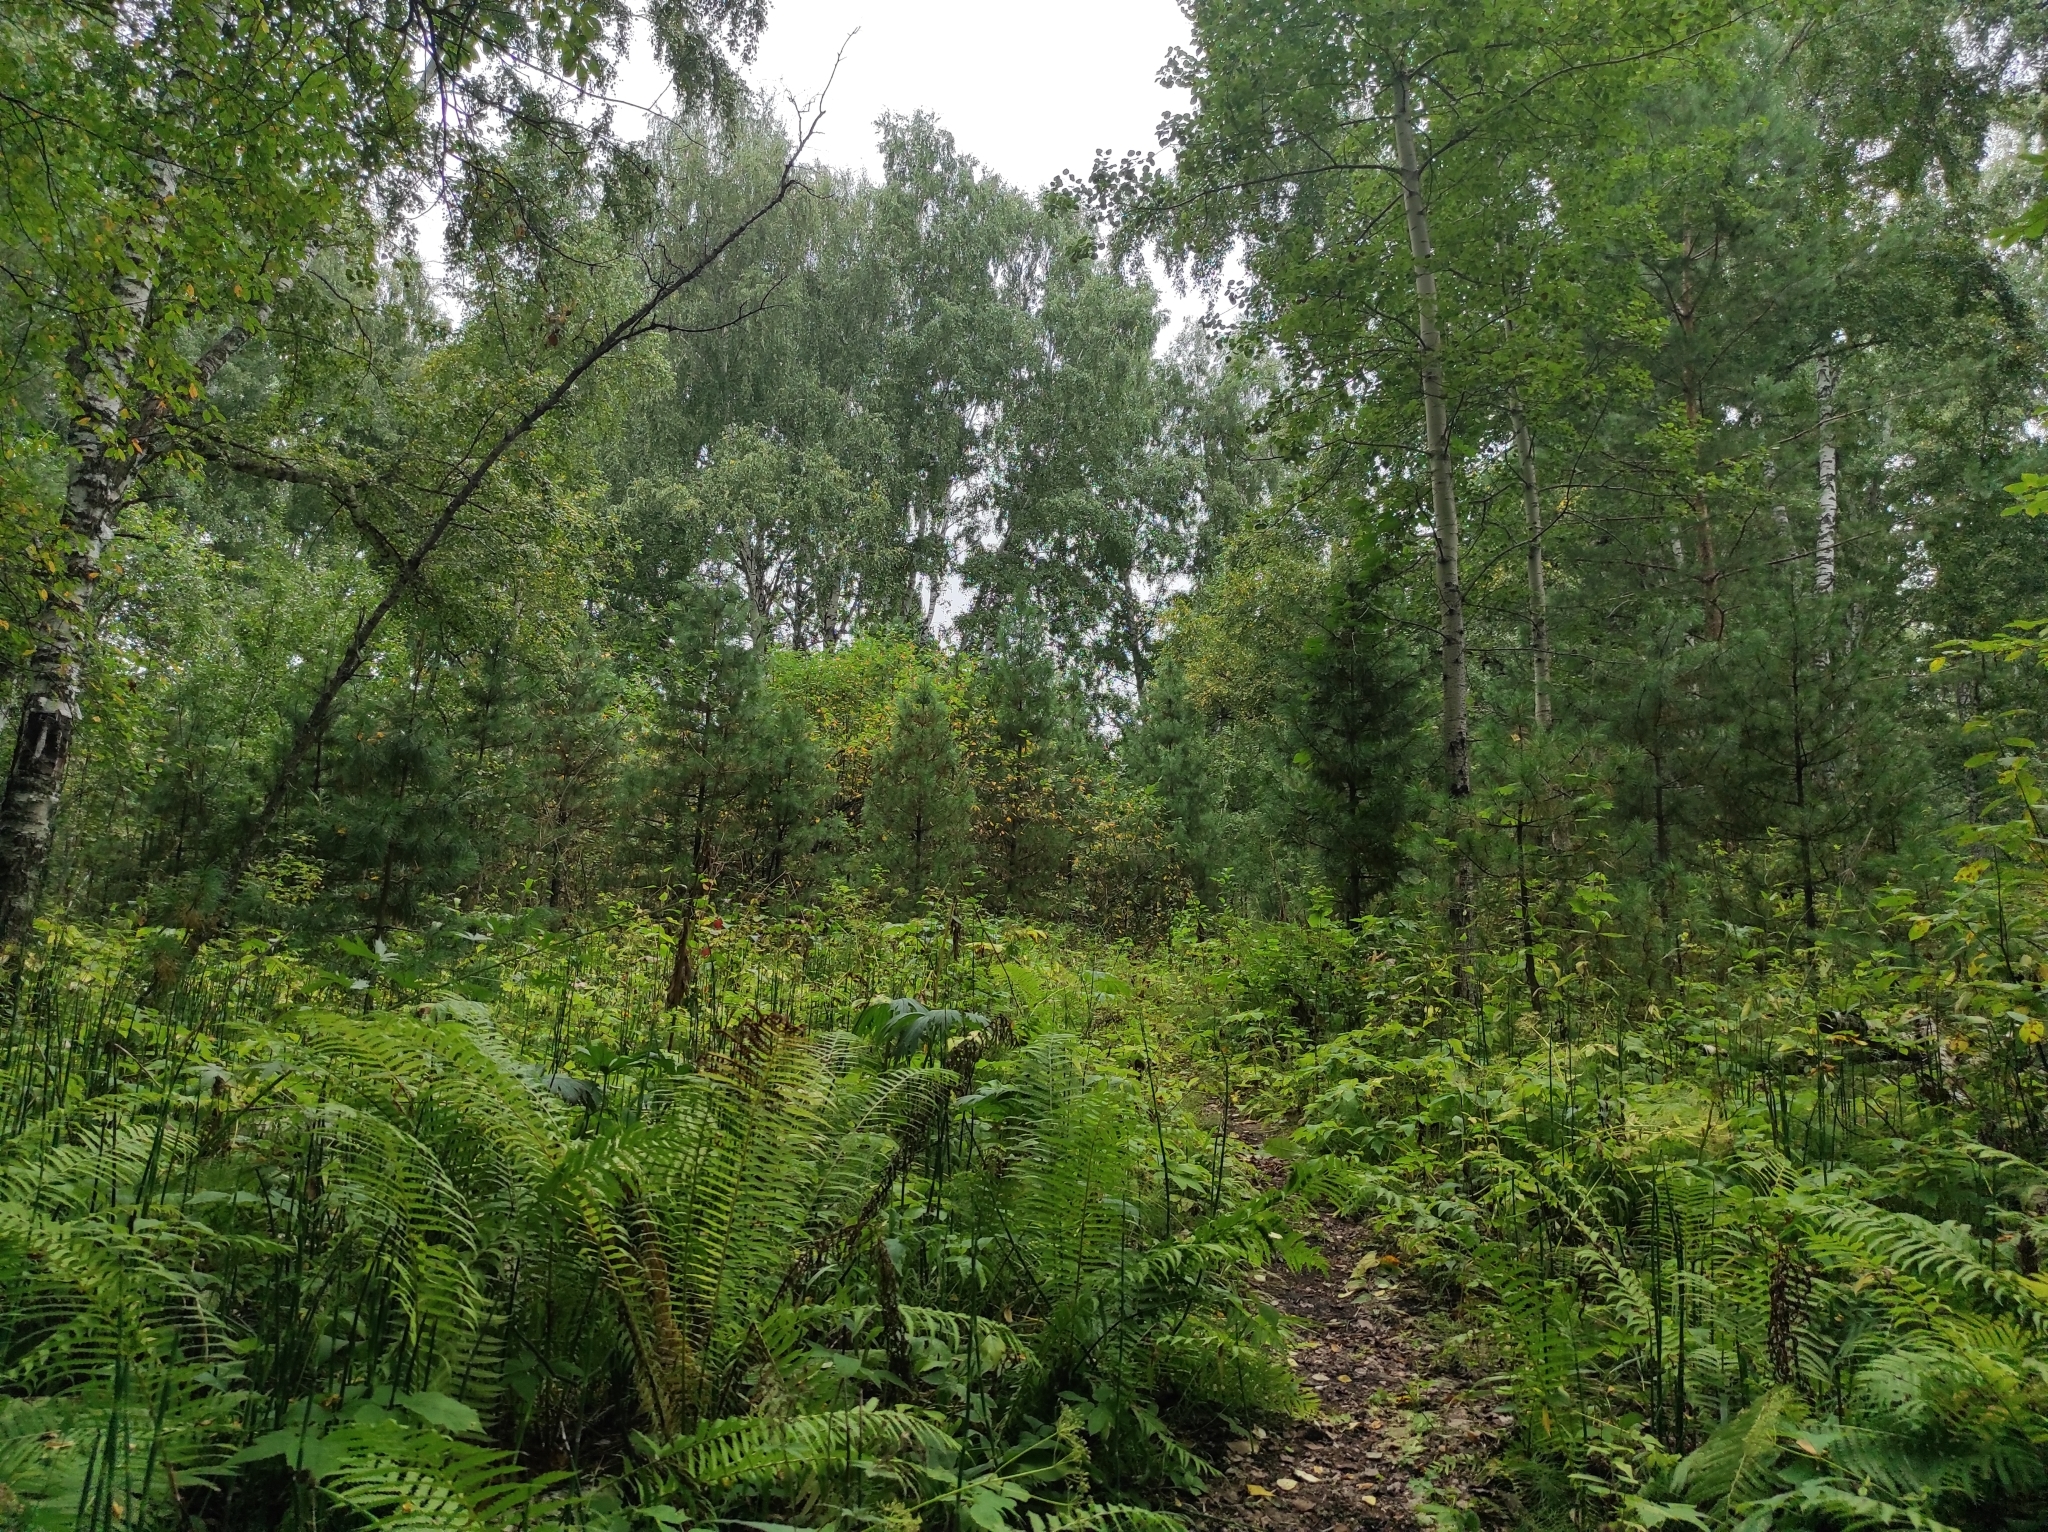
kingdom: Plantae
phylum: Tracheophyta
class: Polypodiopsida
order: Polypodiales
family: Onocleaceae
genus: Matteuccia
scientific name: Matteuccia struthiopteris
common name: Ostrich fern
